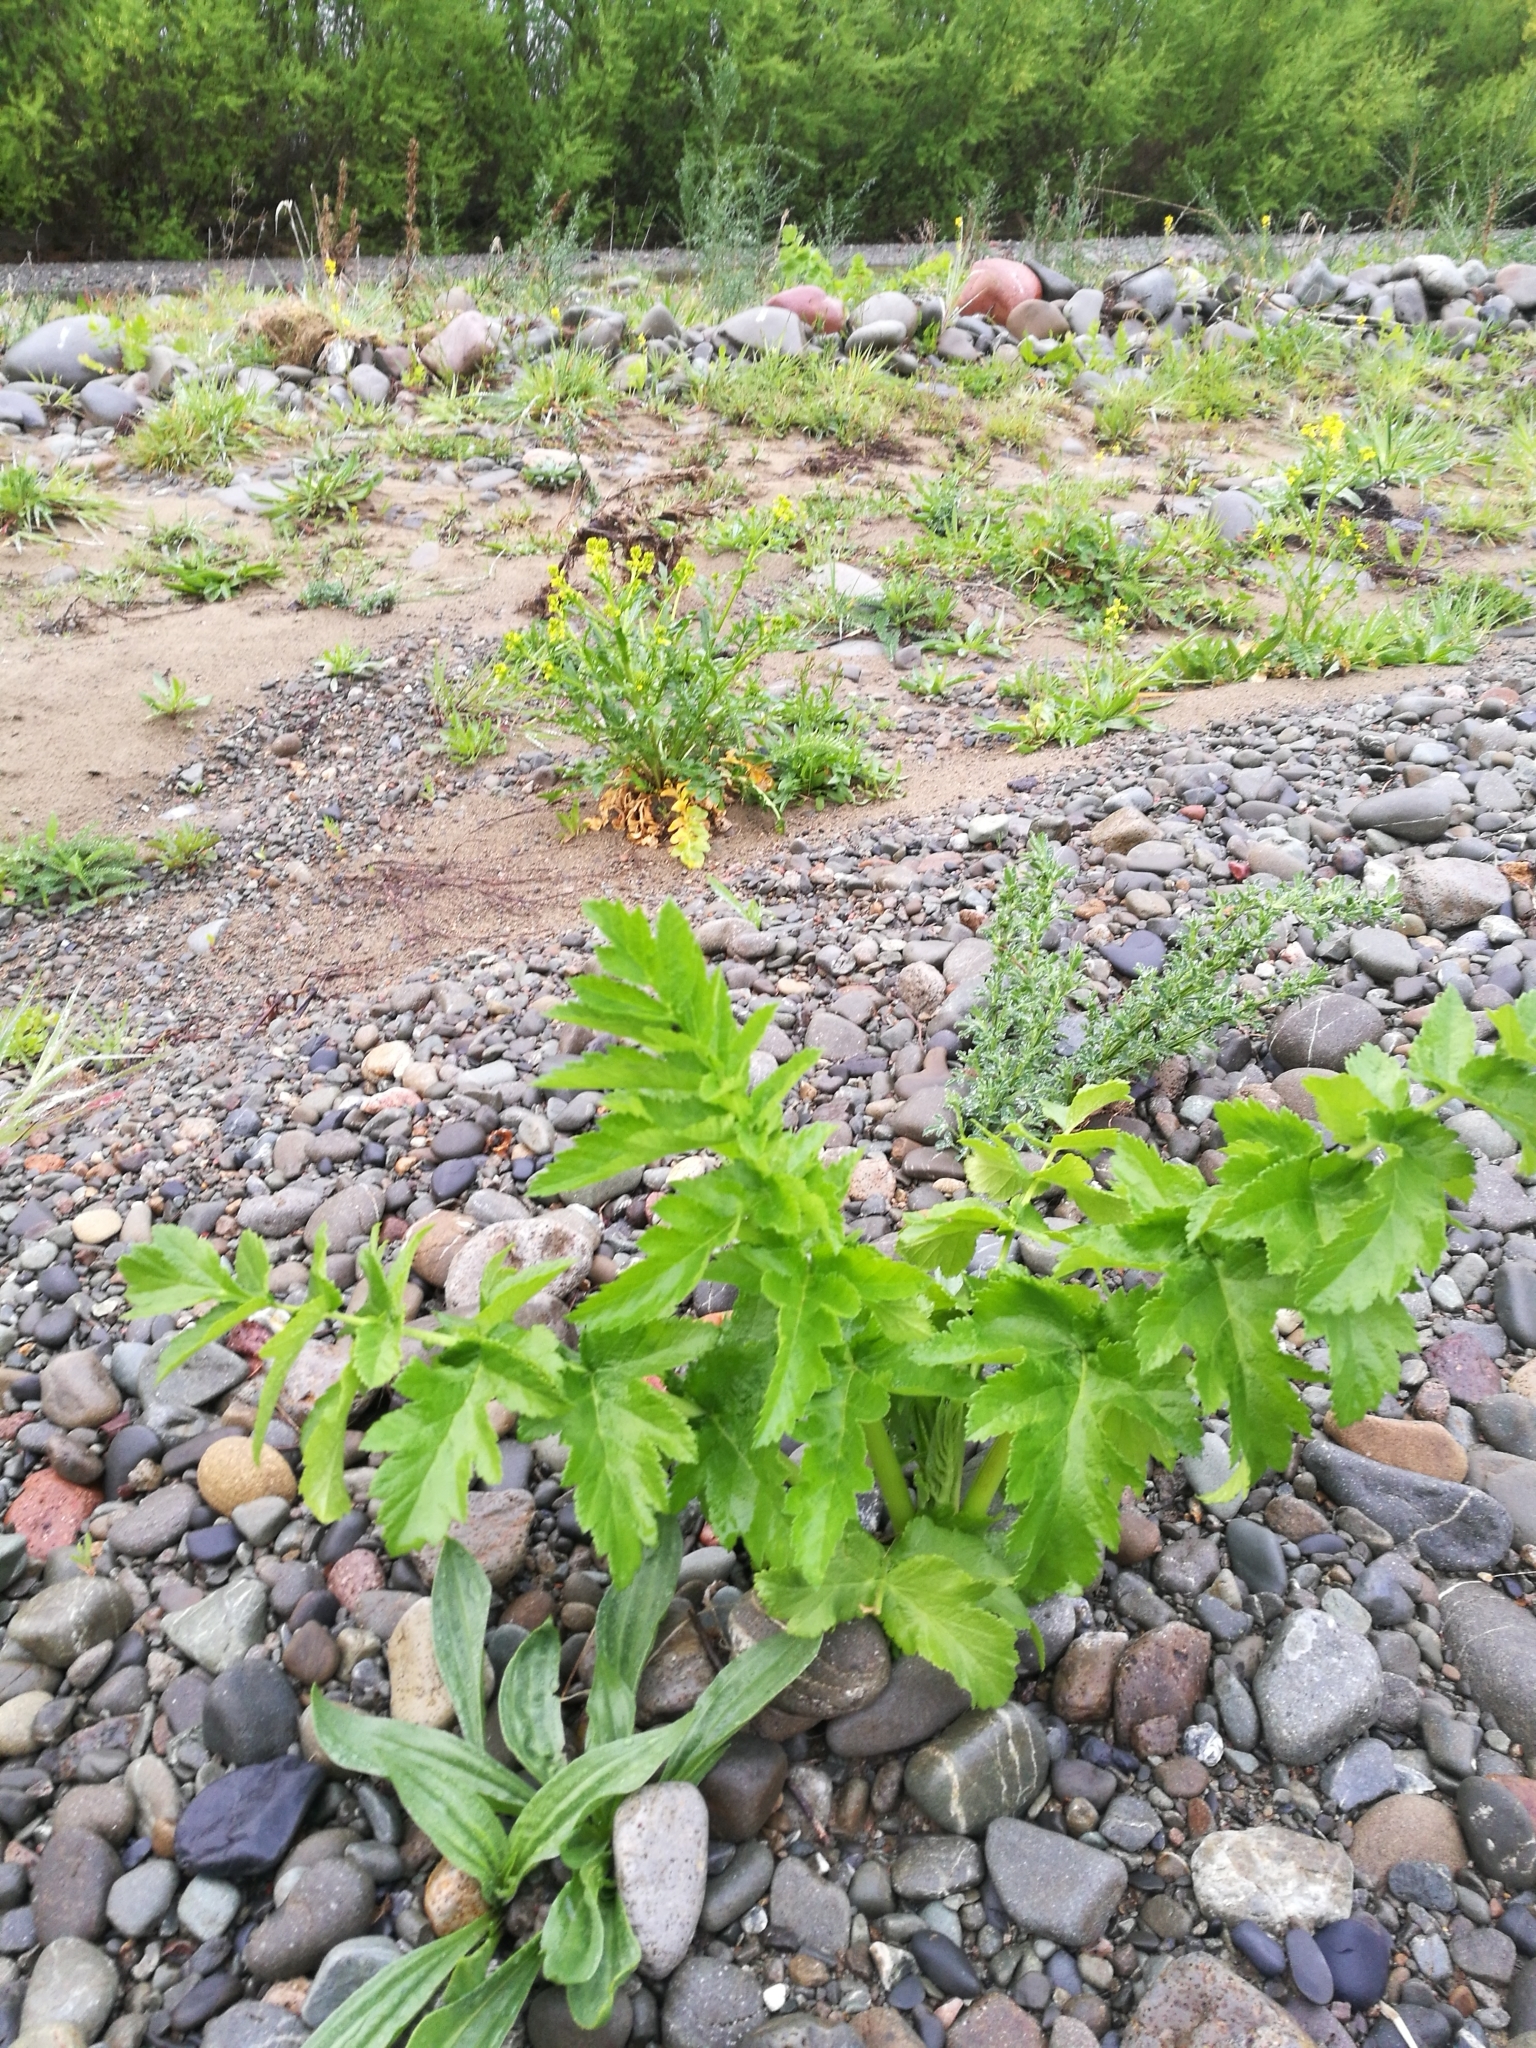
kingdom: Plantae
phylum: Tracheophyta
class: Magnoliopsida
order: Apiales
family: Apiaceae
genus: Pastinaca
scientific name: Pastinaca sativa
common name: Wild parsnip
